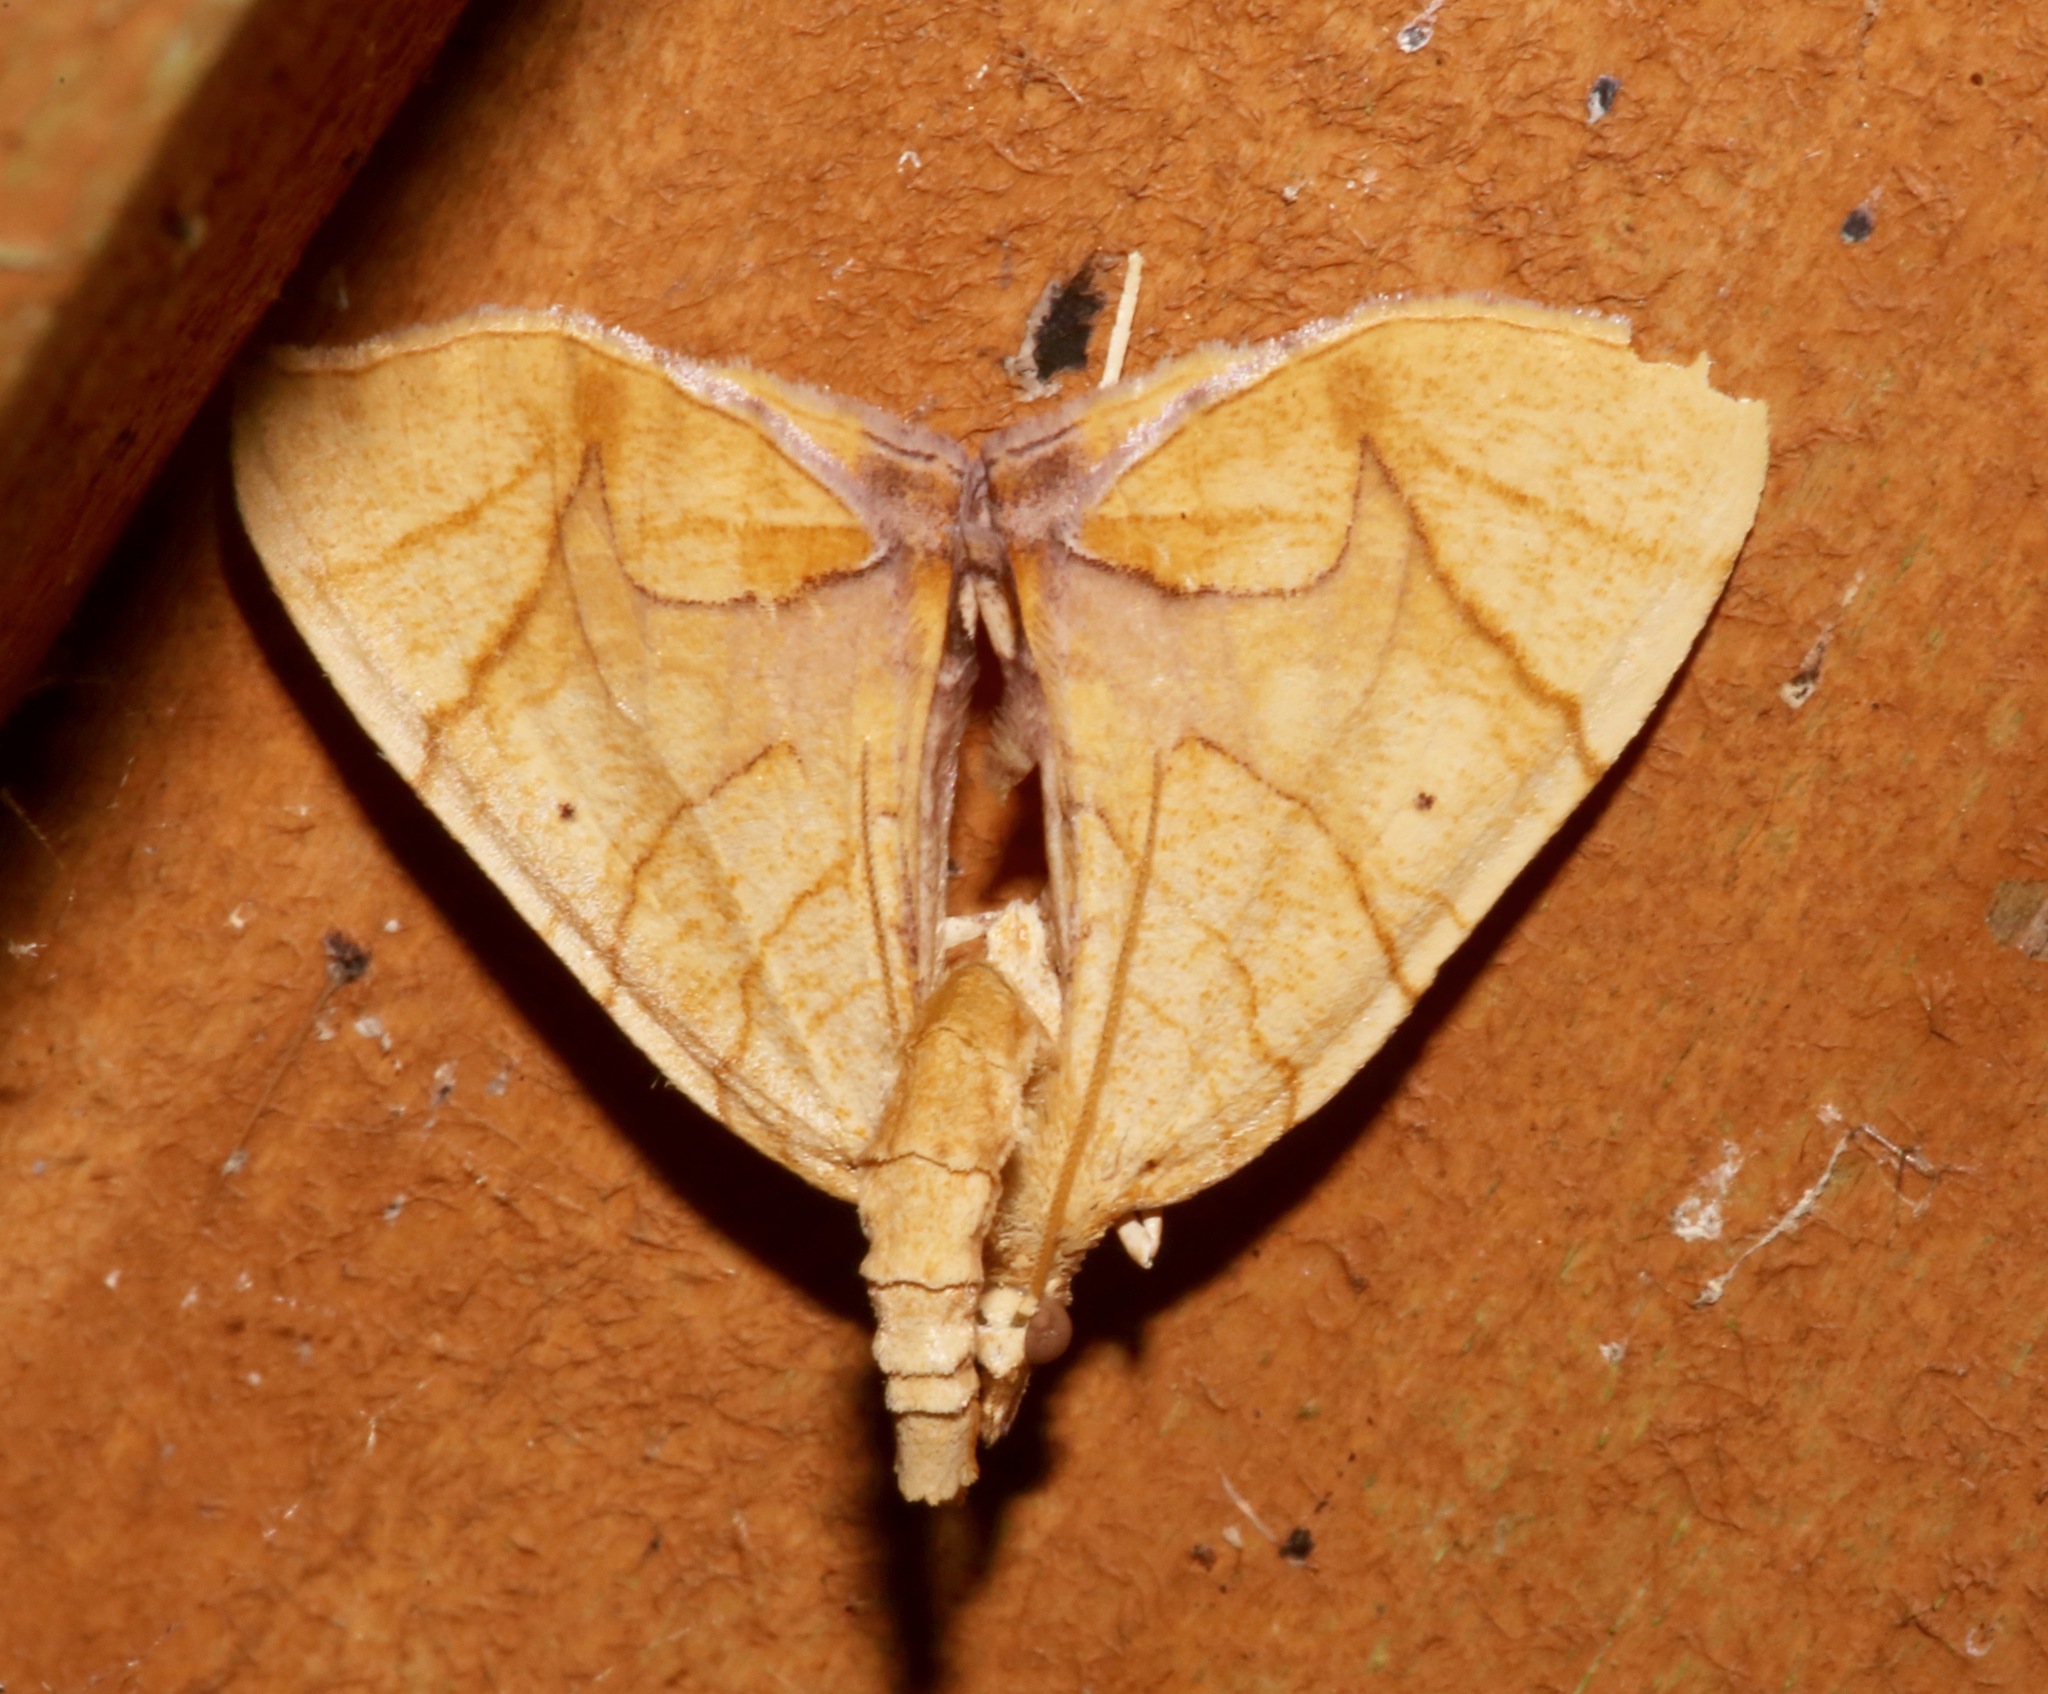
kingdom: Animalia
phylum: Arthropoda
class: Insecta
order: Lepidoptera
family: Geometridae
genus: Eulithis
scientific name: Eulithis
